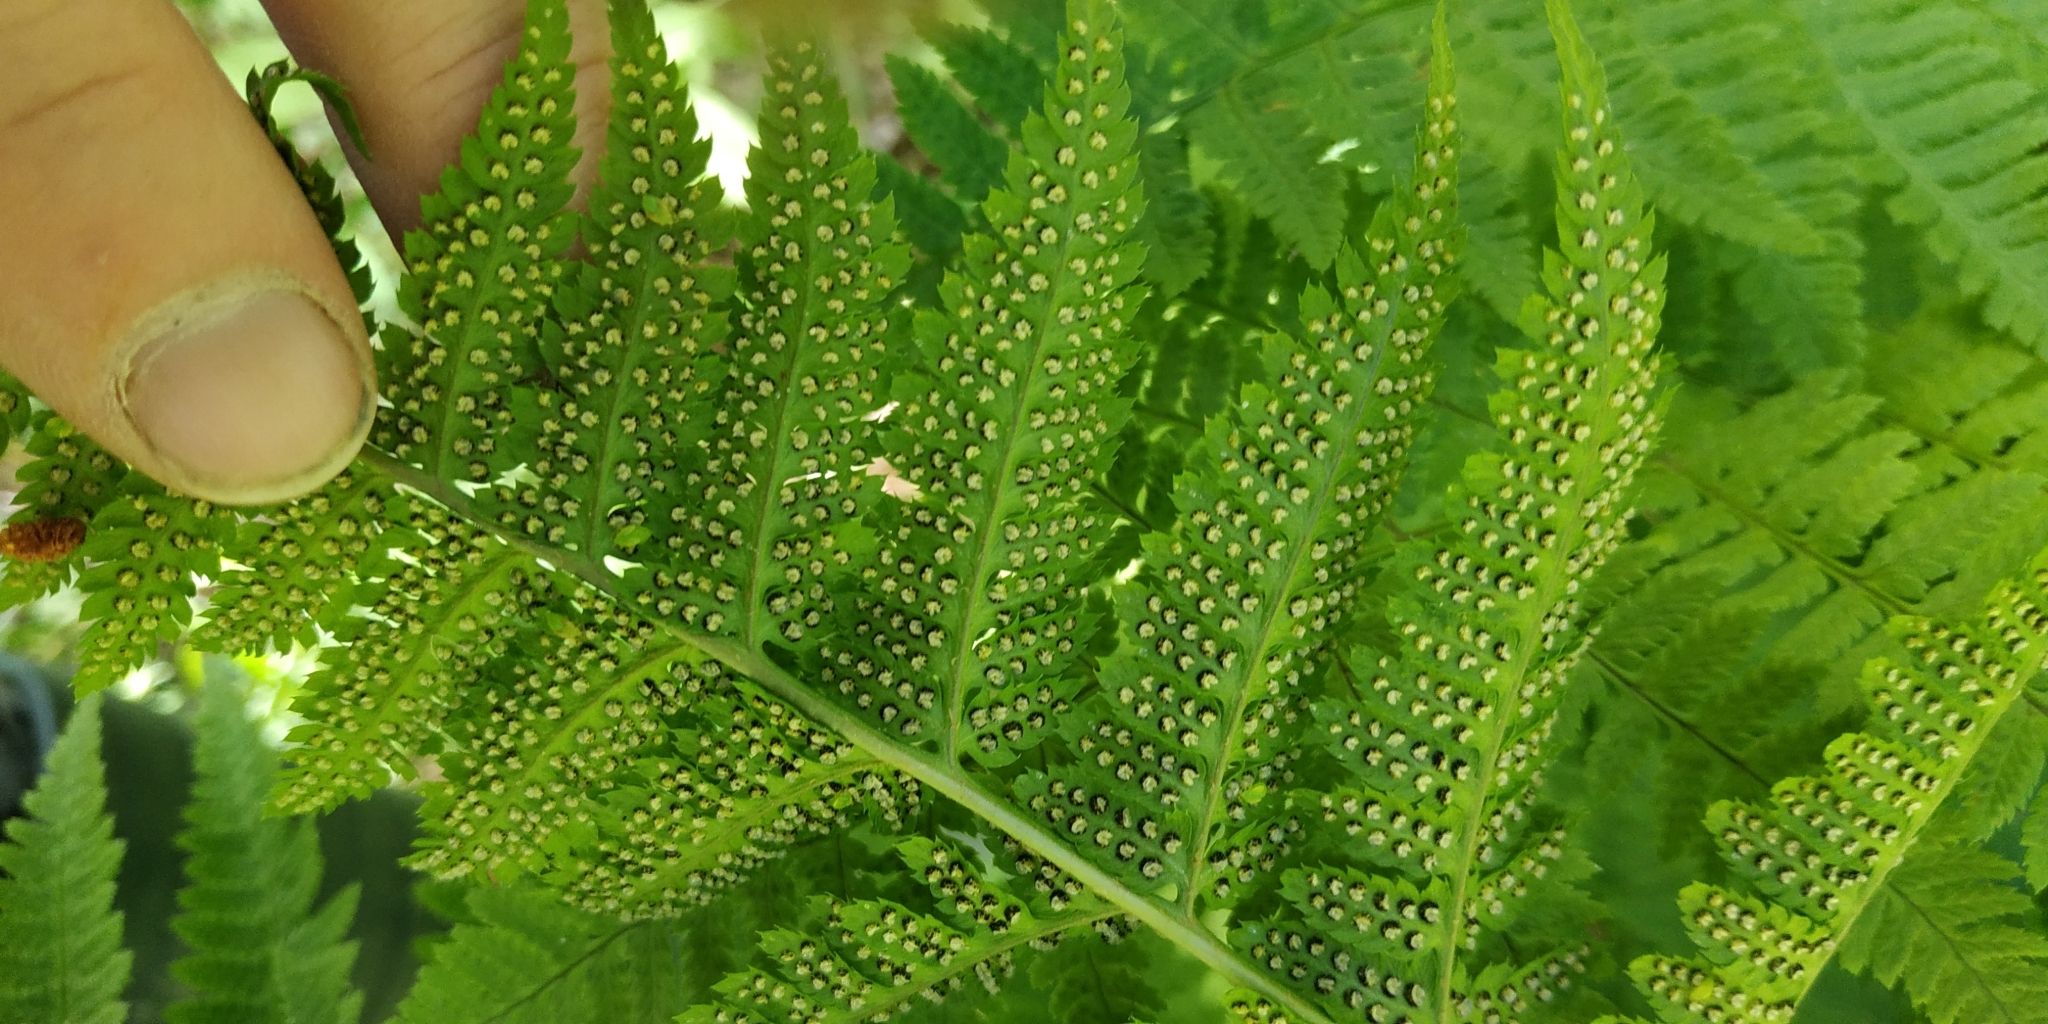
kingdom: Plantae
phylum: Tracheophyta
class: Polypodiopsida
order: Polypodiales
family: Dryopteridaceae
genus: Dryopteris
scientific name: Dryopteris carthusiana
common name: Narrow buckler-fern
